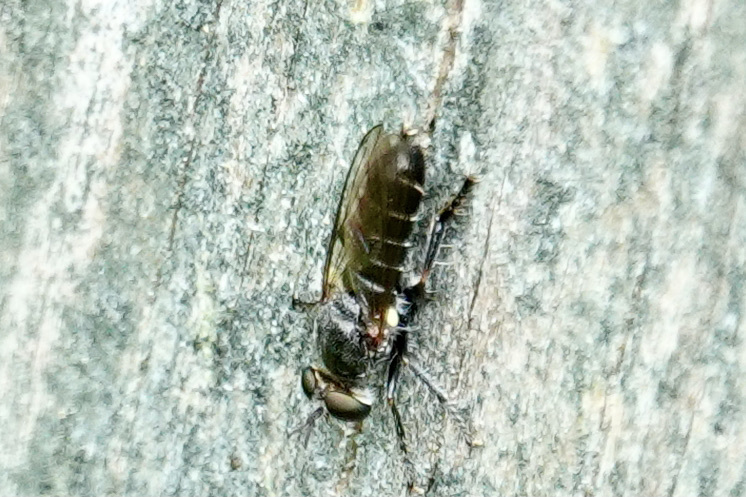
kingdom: Animalia
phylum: Arthropoda
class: Insecta
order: Diptera
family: Asilidae
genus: Atomosia
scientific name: Atomosia puella
